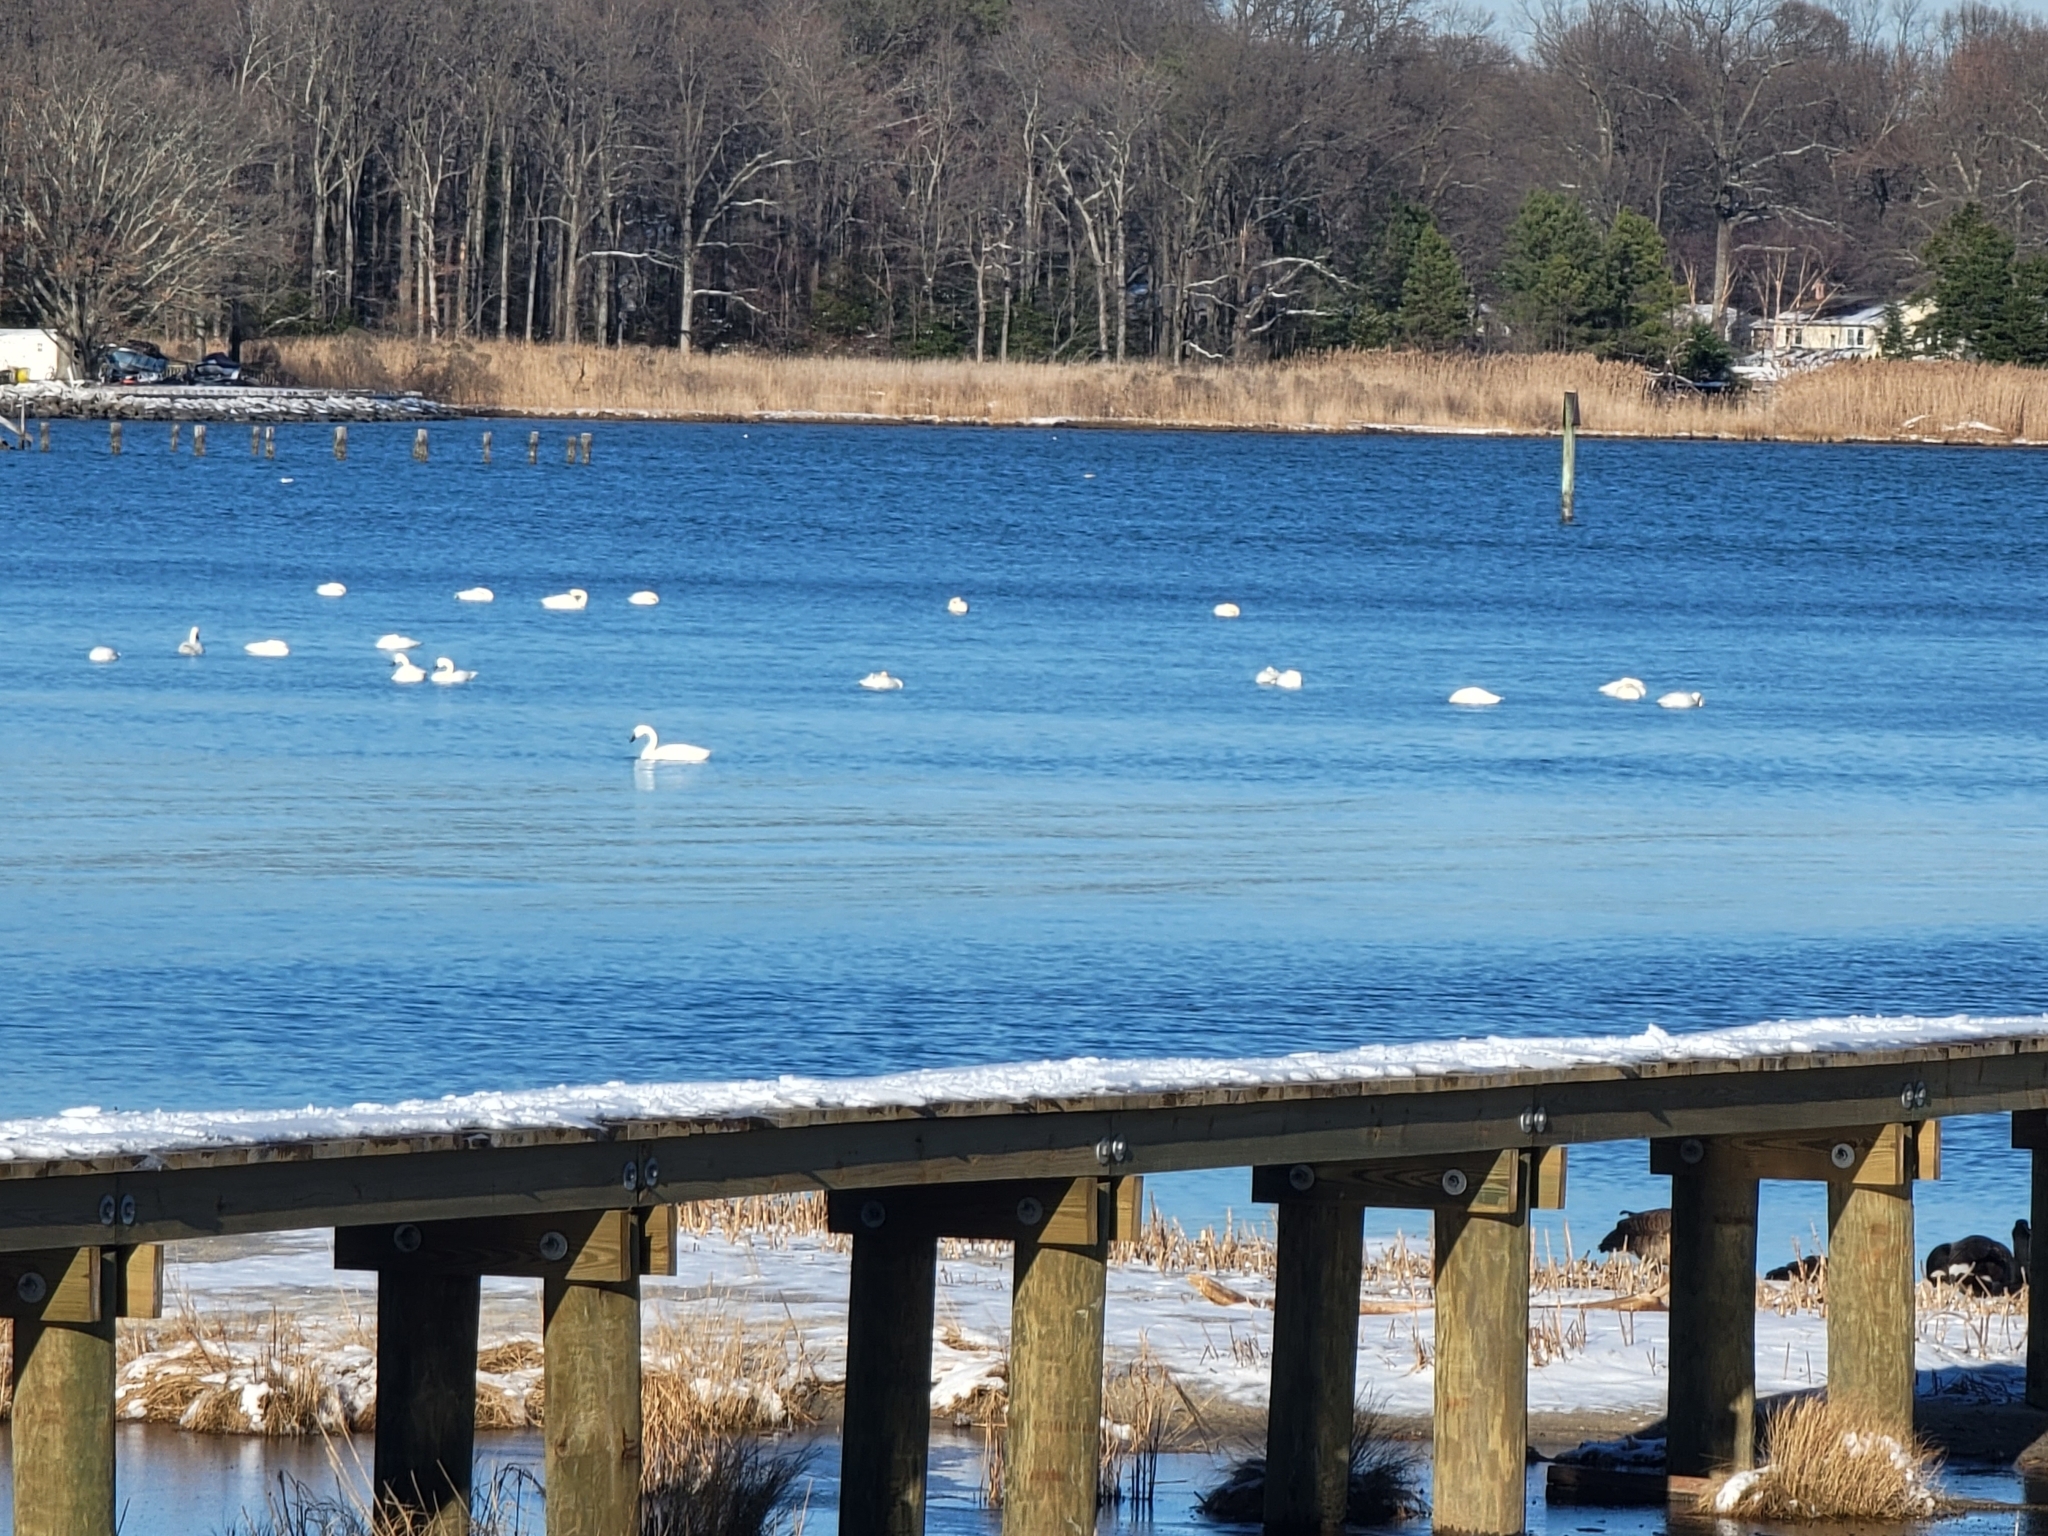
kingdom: Animalia
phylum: Chordata
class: Aves
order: Anseriformes
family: Anatidae
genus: Cygnus
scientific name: Cygnus columbianus
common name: Tundra swan
